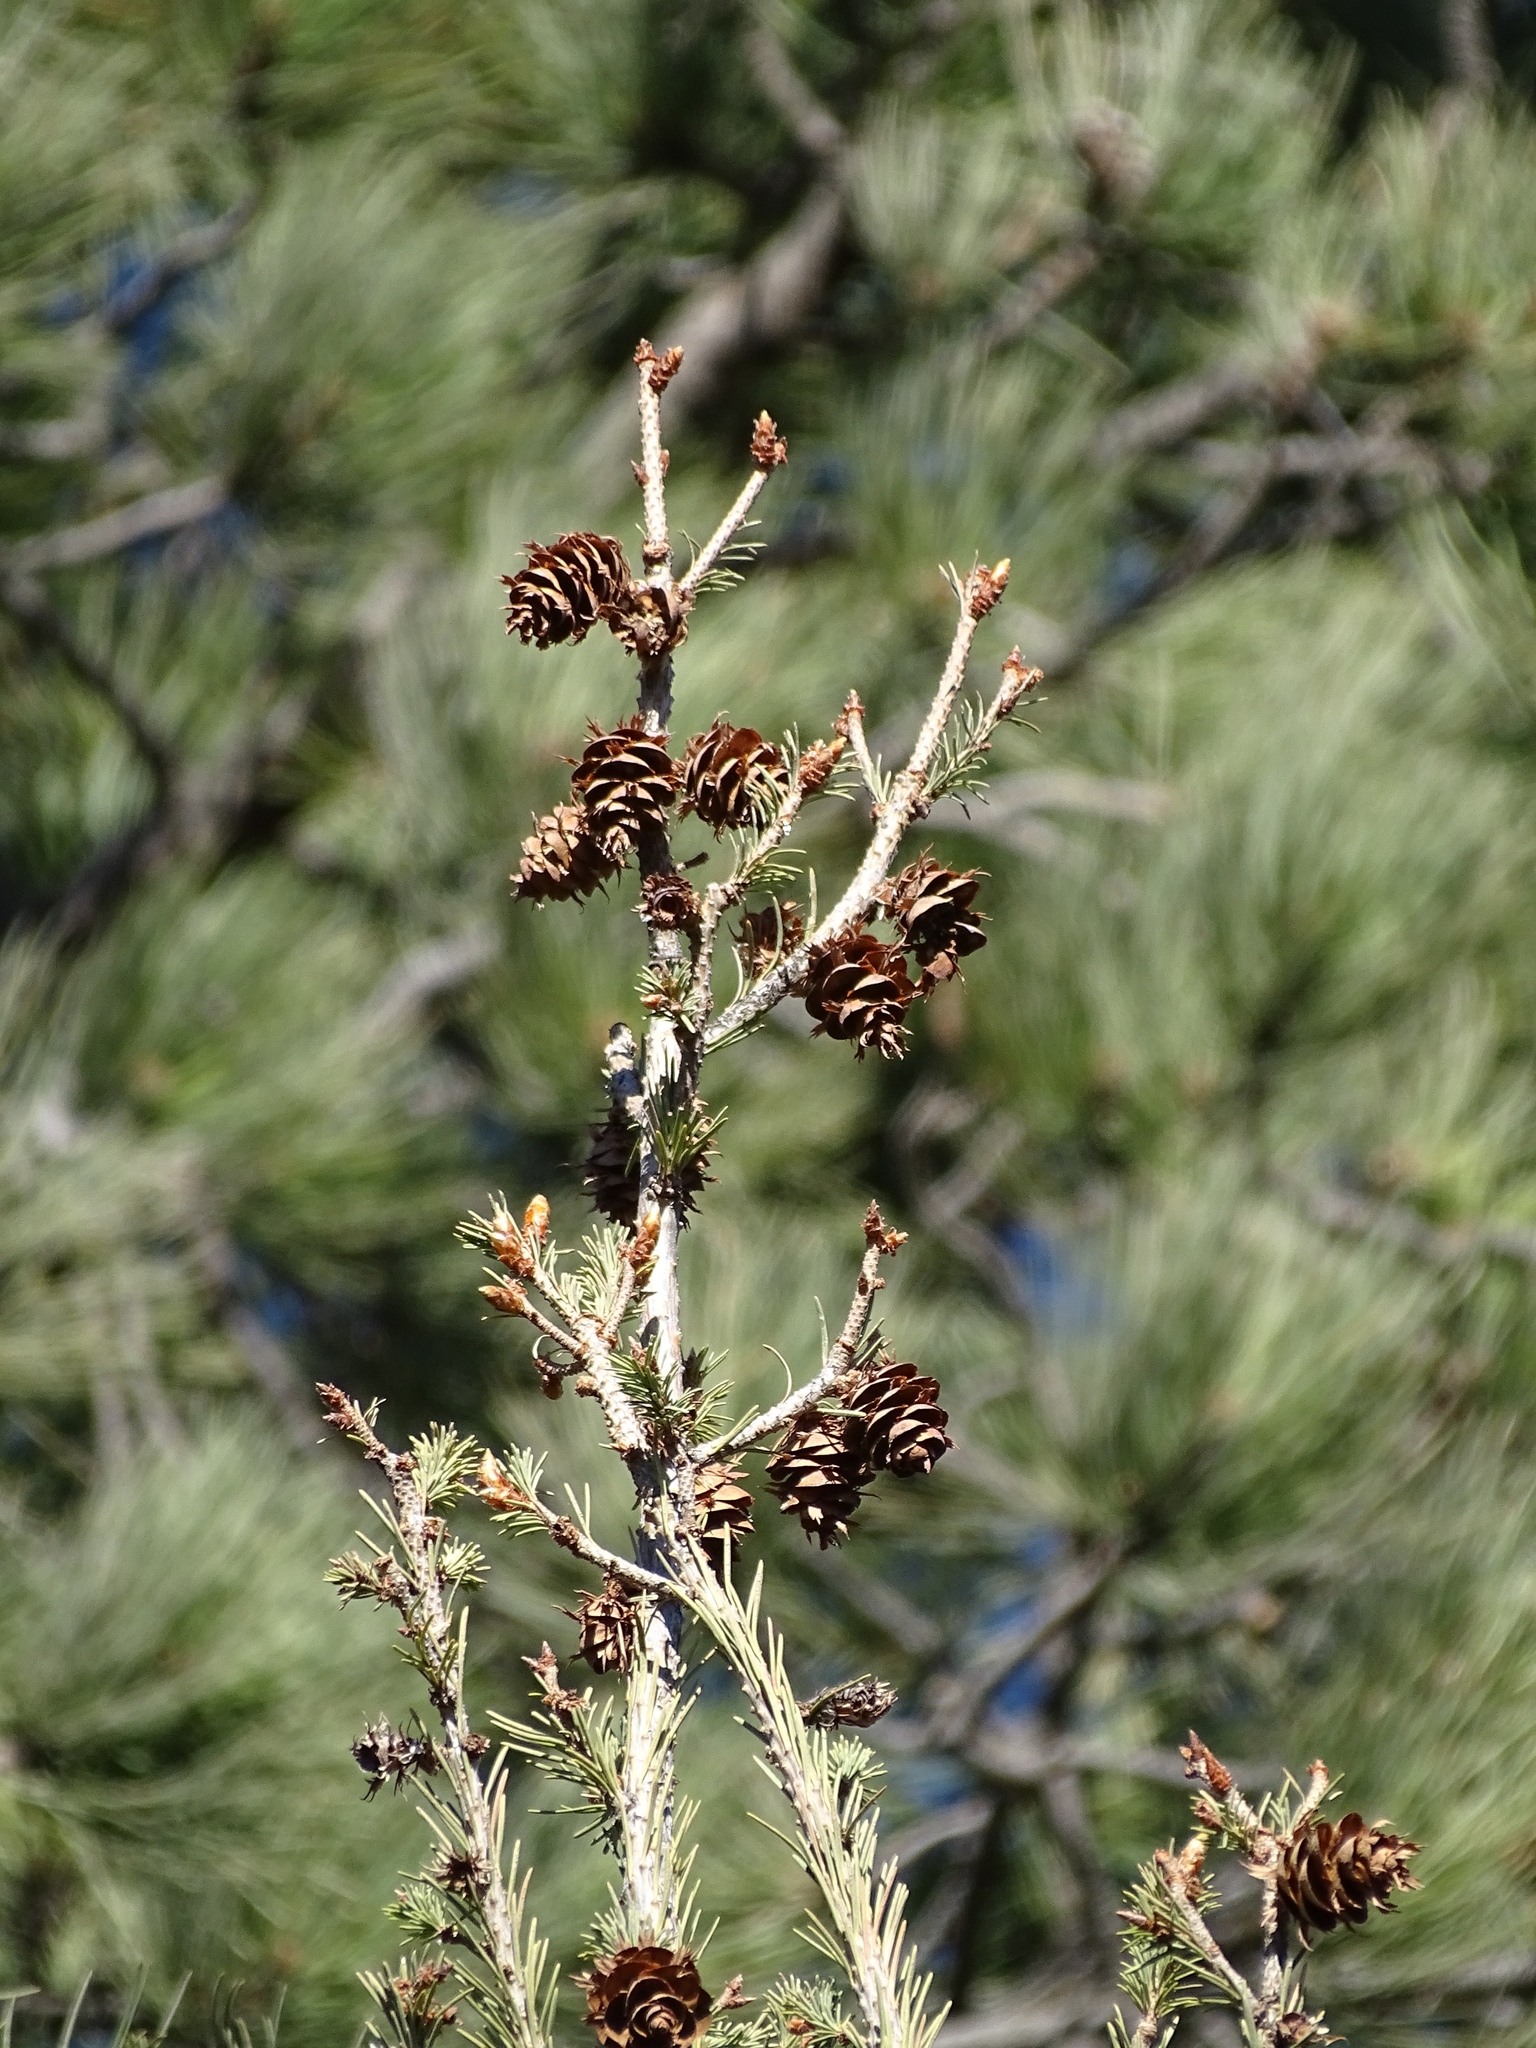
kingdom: Plantae
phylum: Tracheophyta
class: Pinopsida
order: Pinales
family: Pinaceae
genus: Pseudotsuga
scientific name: Pseudotsuga menziesii
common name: Douglas fir
